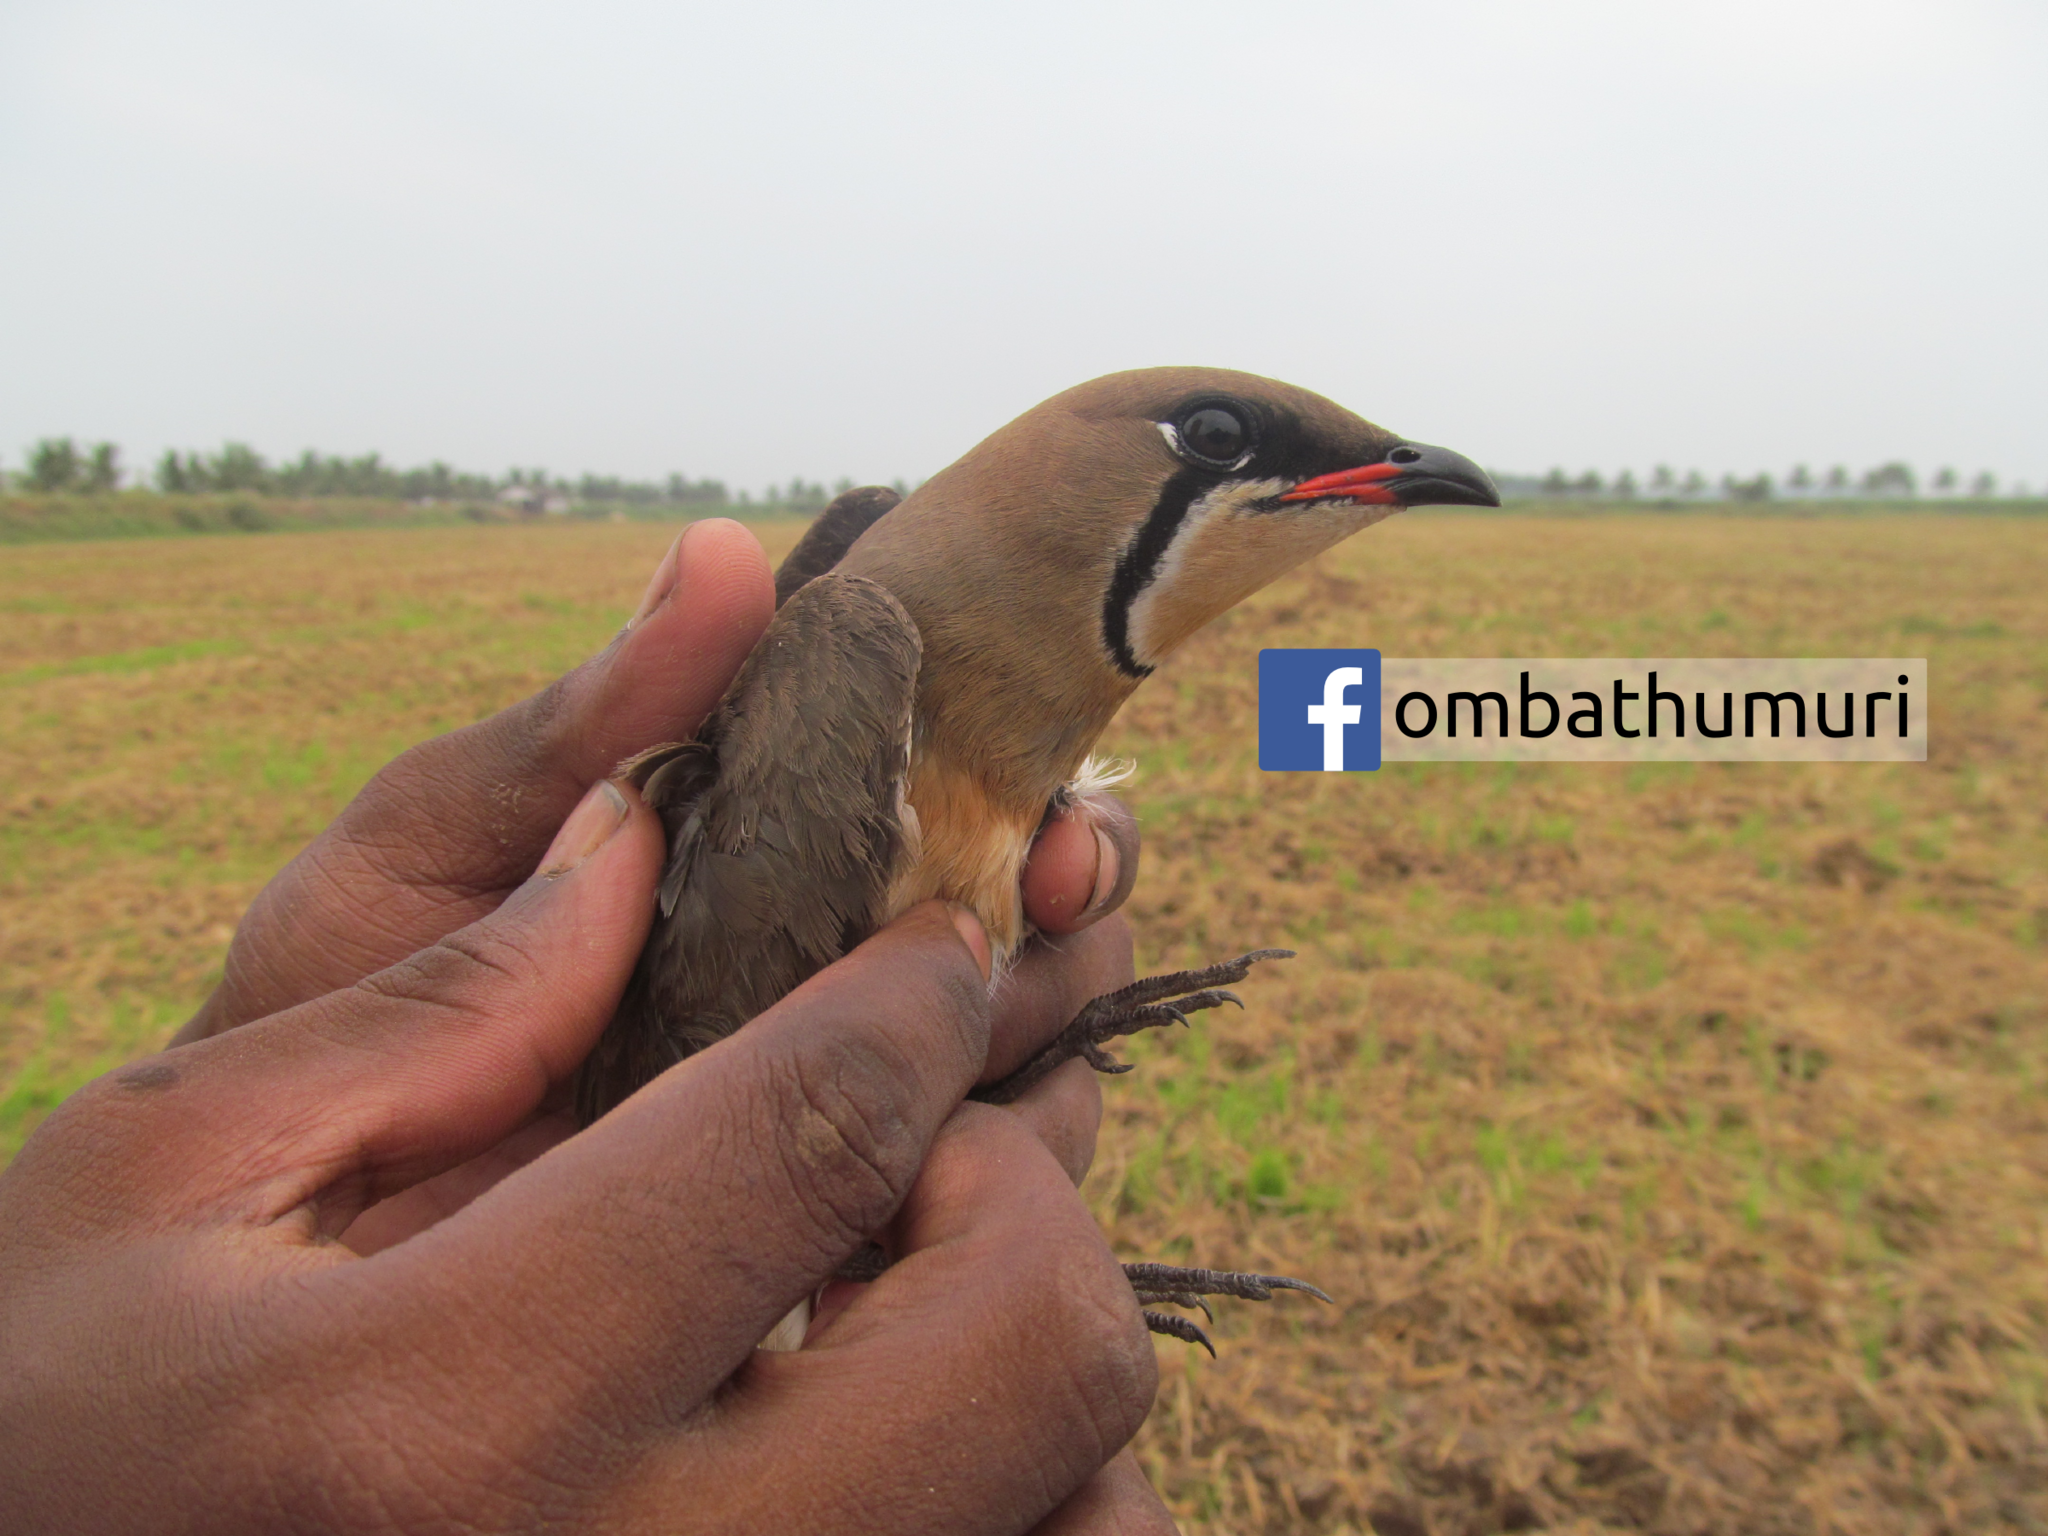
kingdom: Animalia
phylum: Chordata
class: Aves
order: Charadriiformes
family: Glareolidae
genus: Glareola
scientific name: Glareola maldivarum
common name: Oriental pratincole
